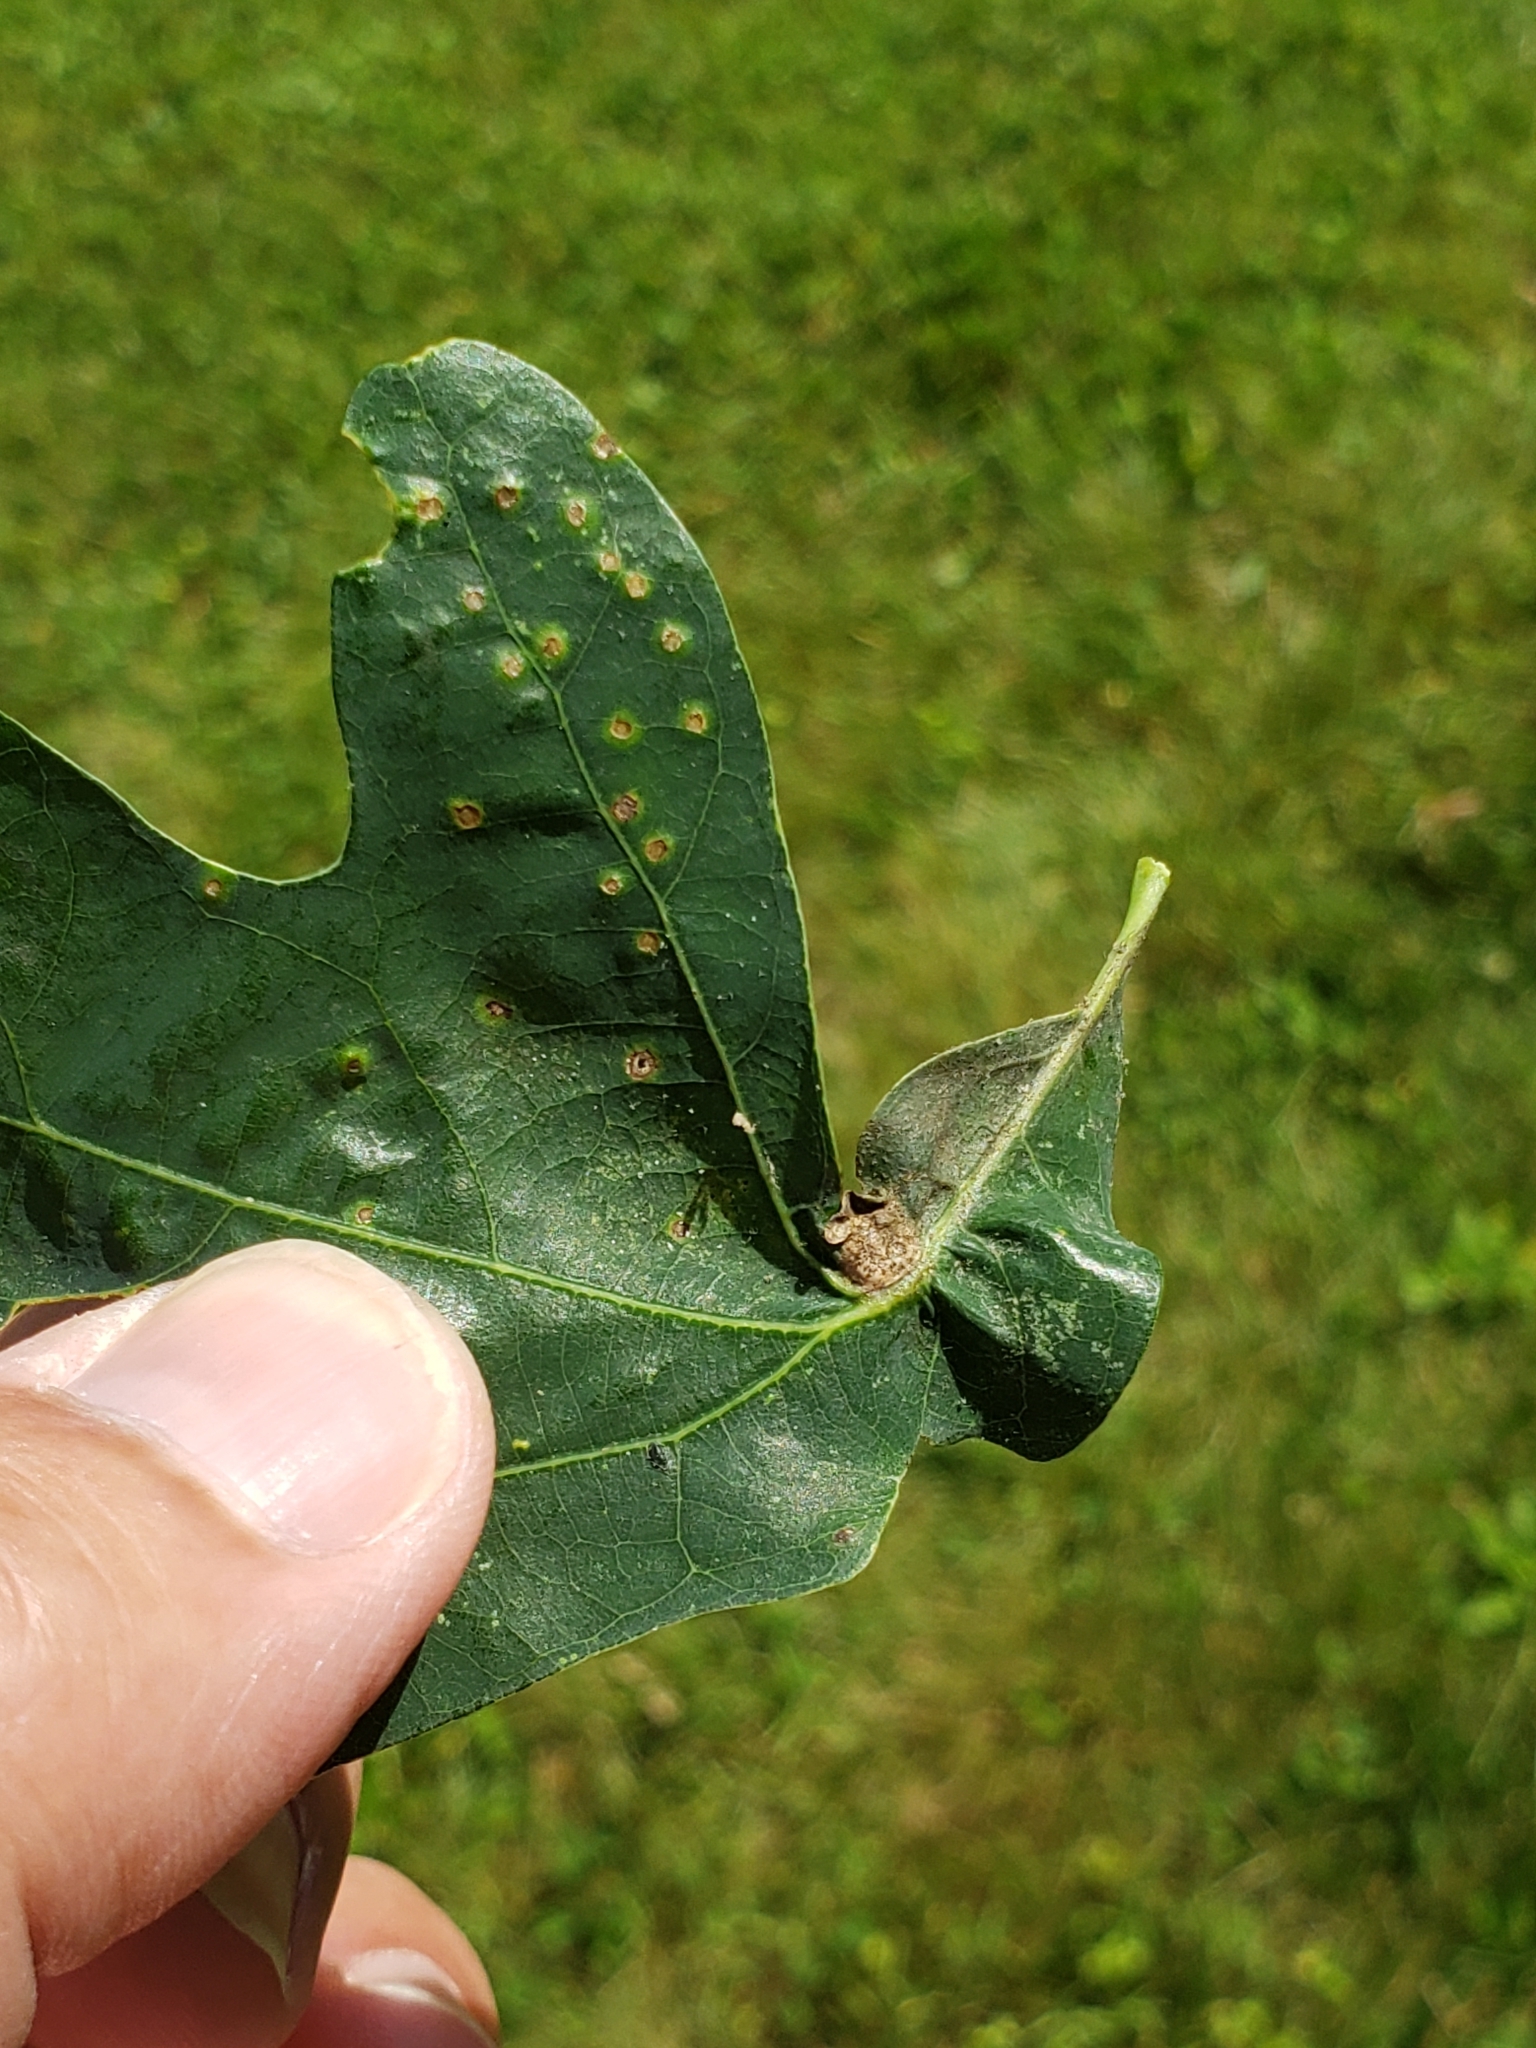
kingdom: Animalia
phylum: Arthropoda
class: Insecta
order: Hymenoptera
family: Cynipidae
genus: Andricus
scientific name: Andricus
